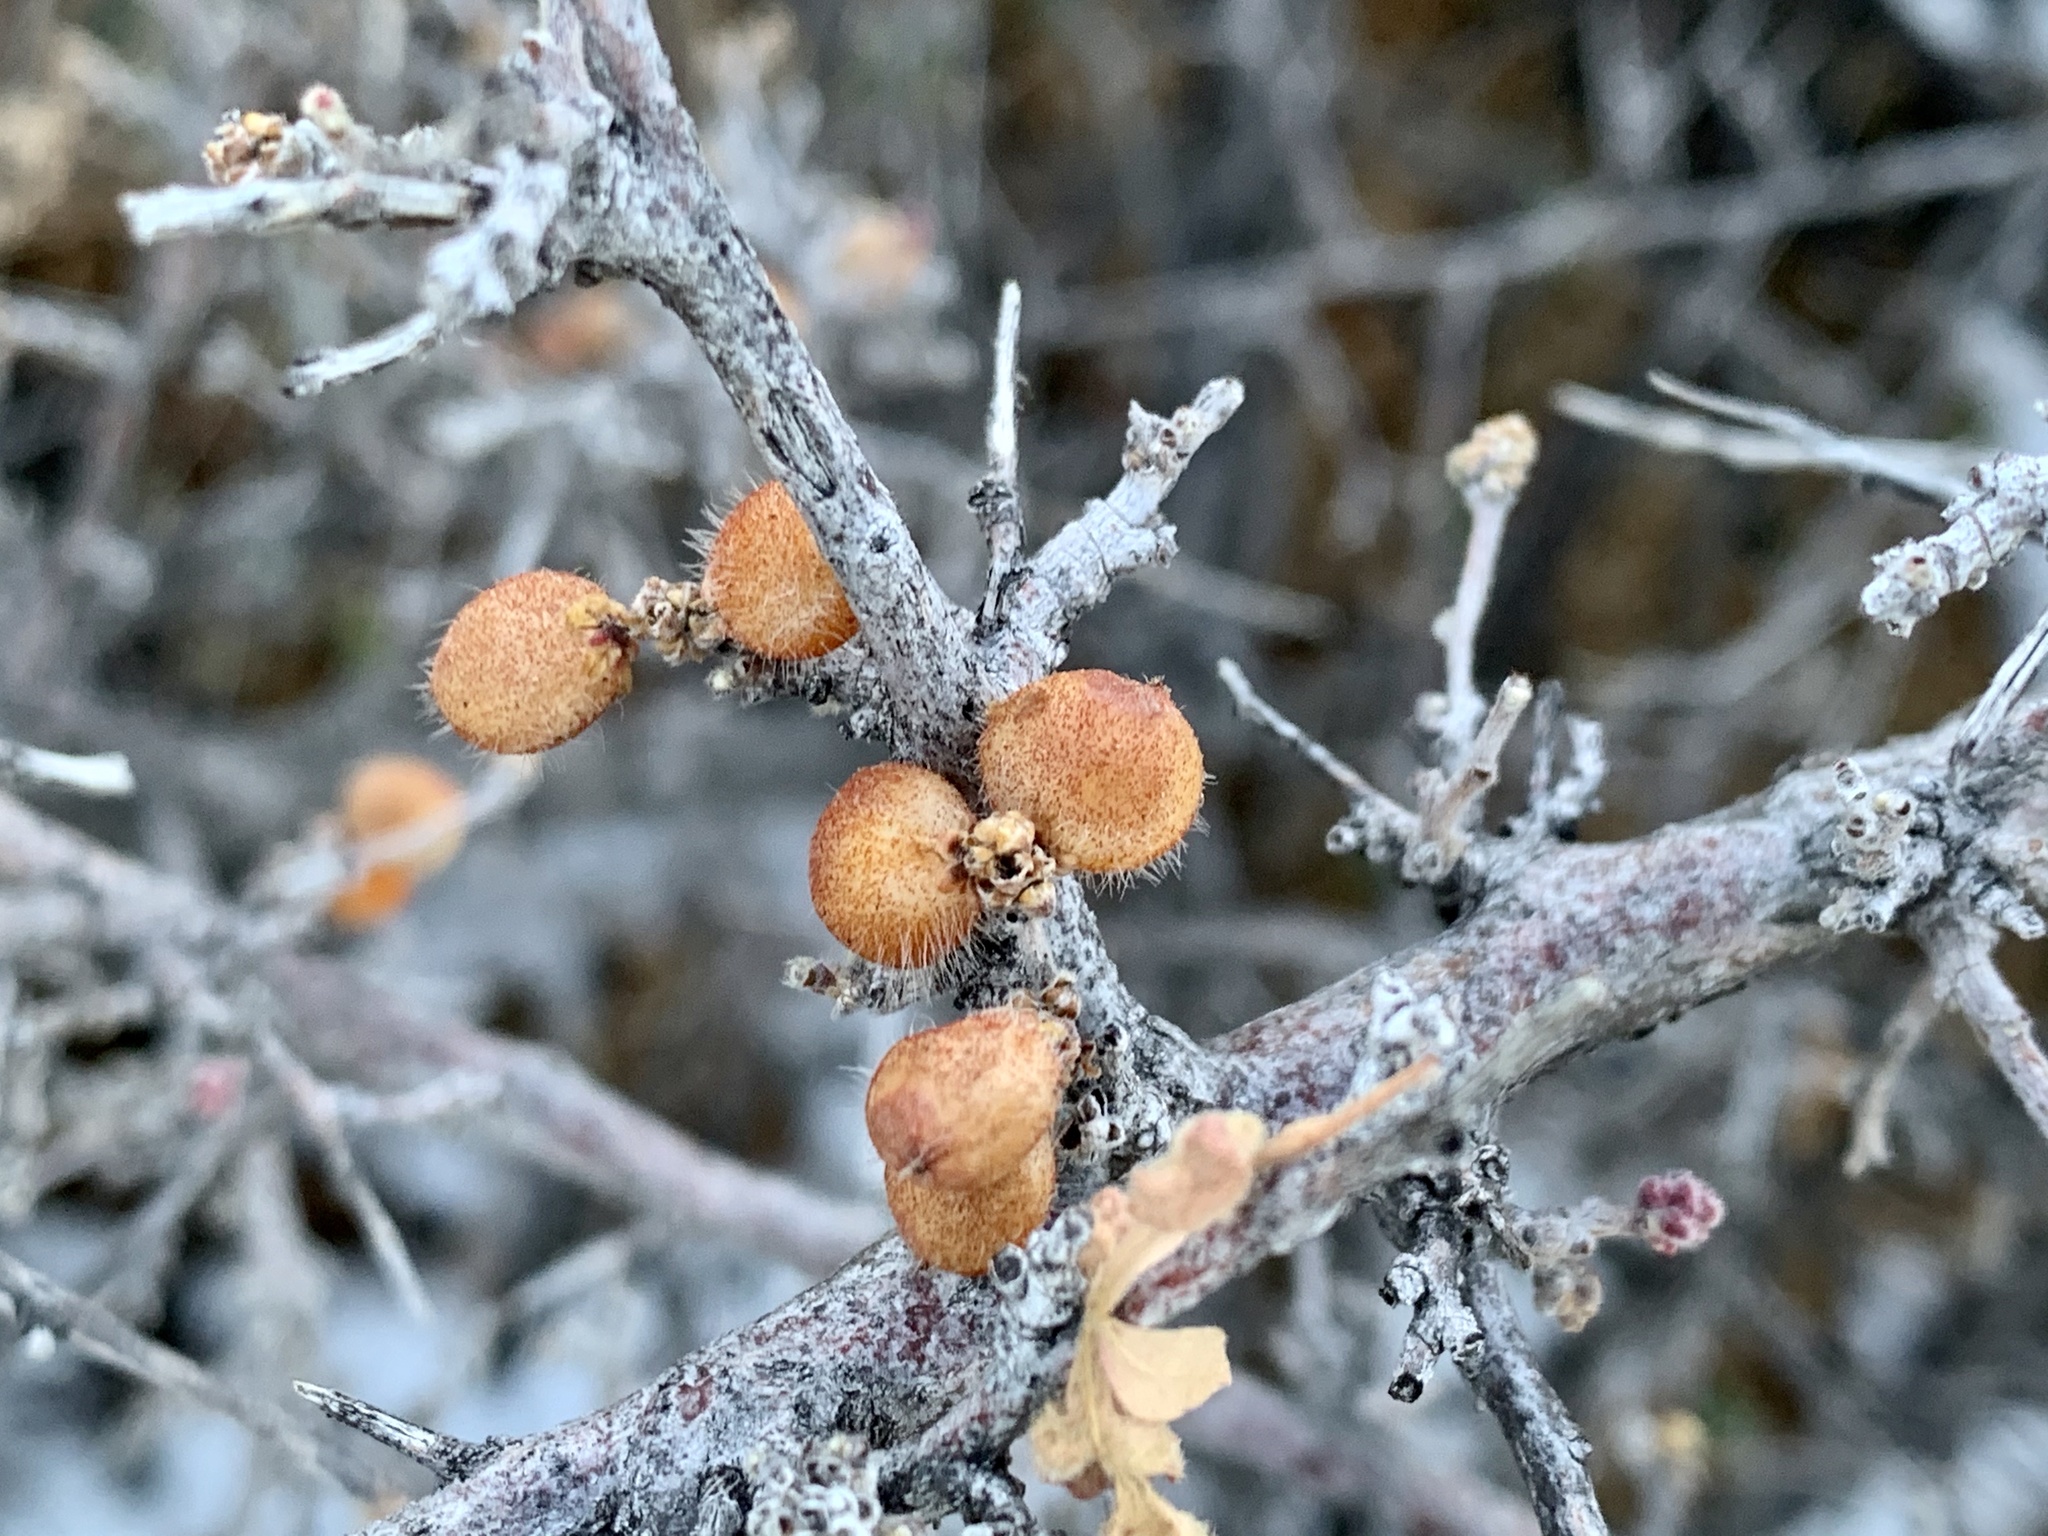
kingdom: Plantae
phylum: Tracheophyta
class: Magnoliopsida
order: Sapindales
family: Anacardiaceae
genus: Rhus
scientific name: Rhus microphylla
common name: Desert sumac
